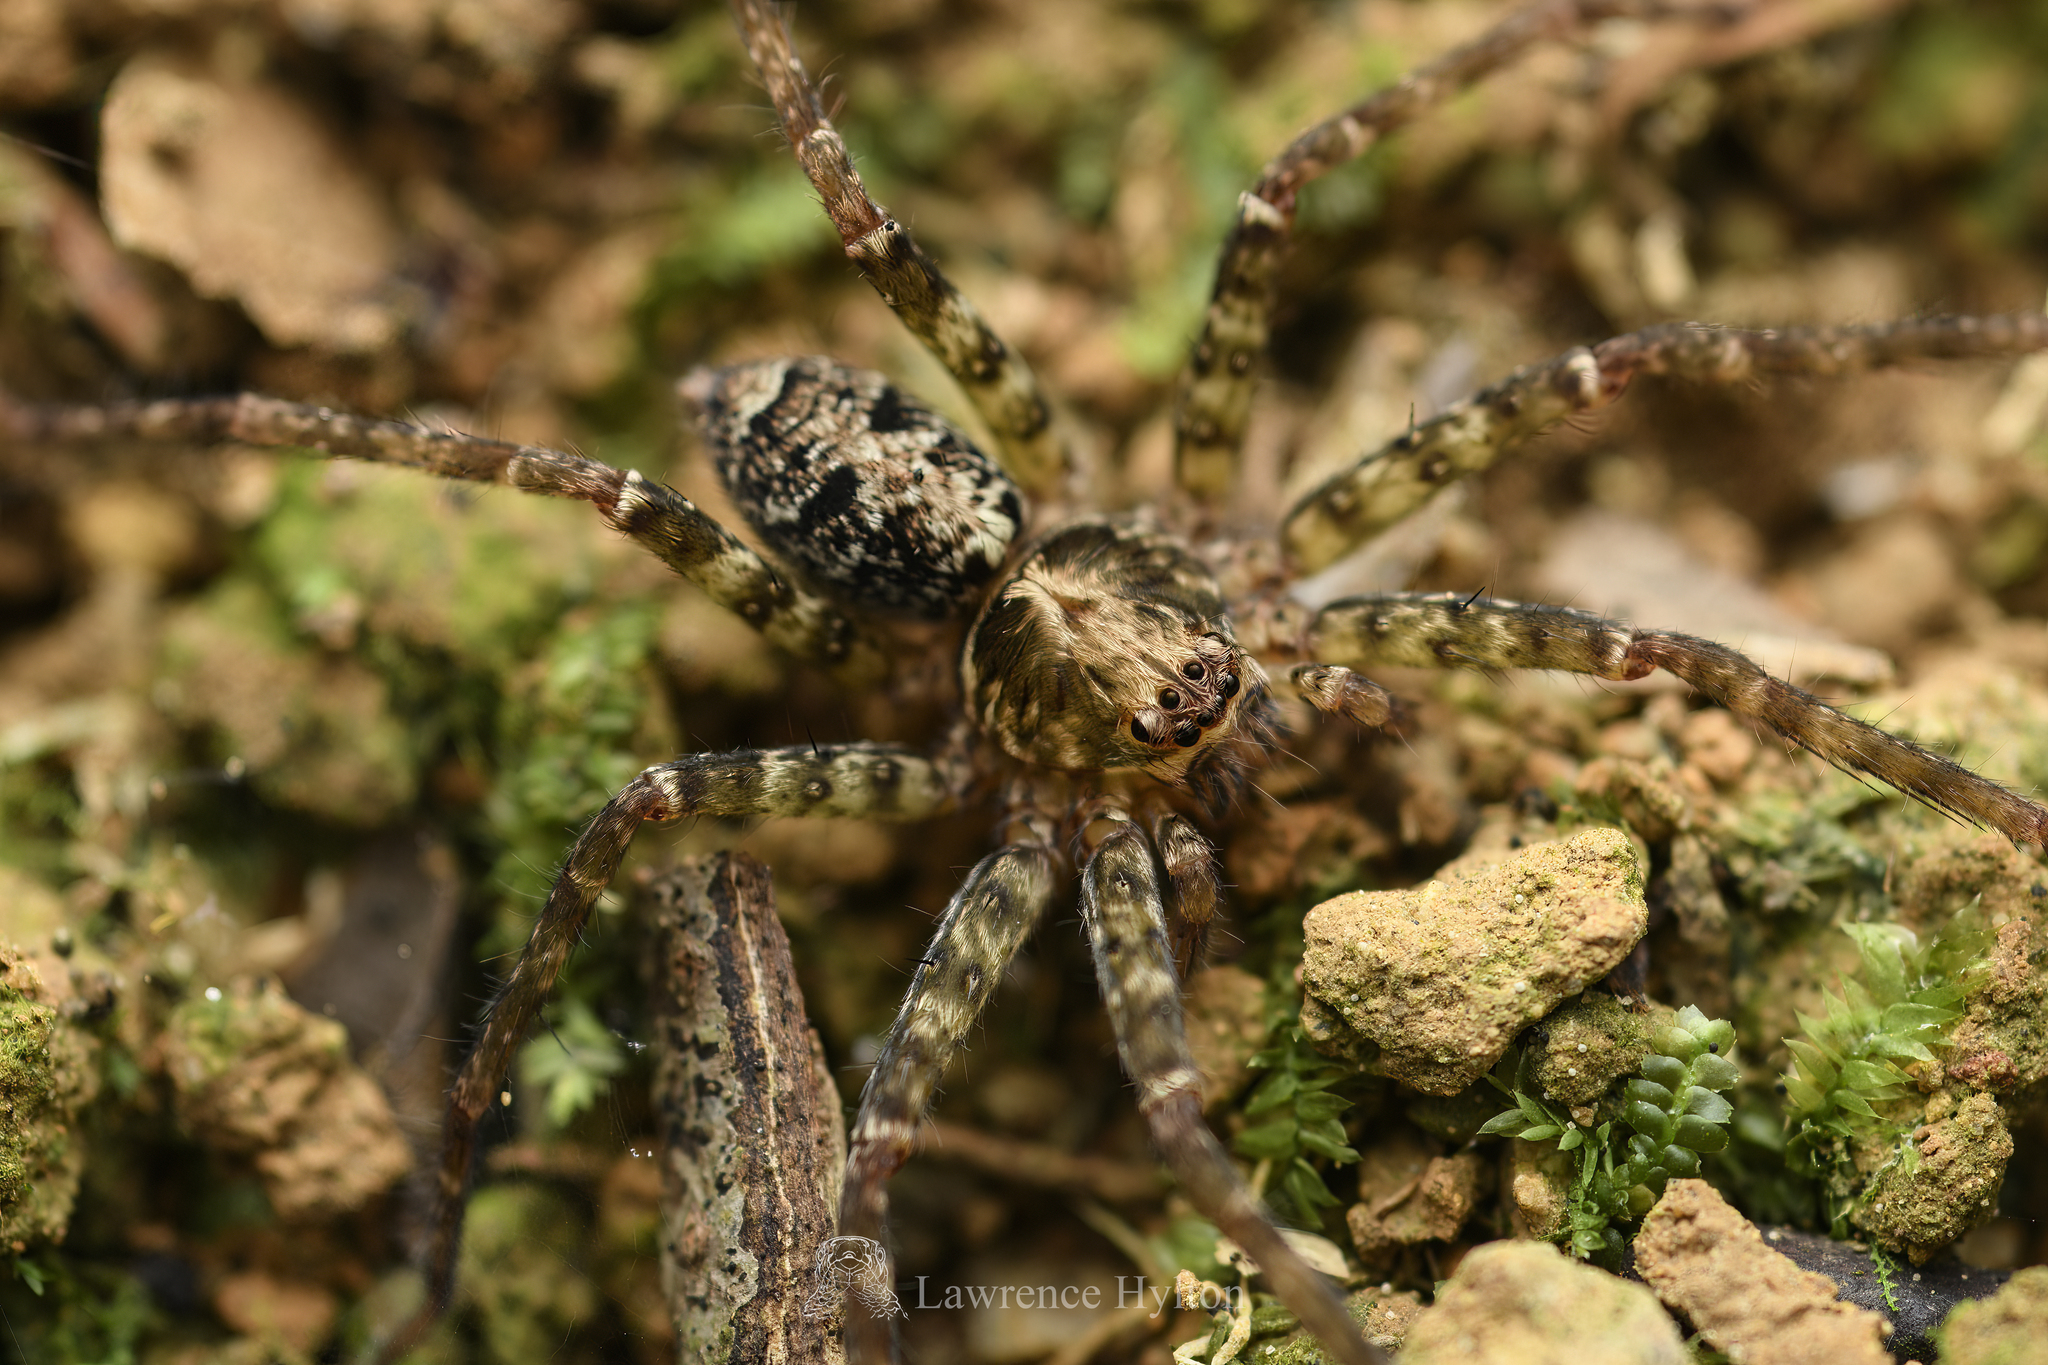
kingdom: Animalia
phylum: Arthropoda
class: Arachnida
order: Araneae
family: Sparassidae
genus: Heteropoda
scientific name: Heteropoda amphora
